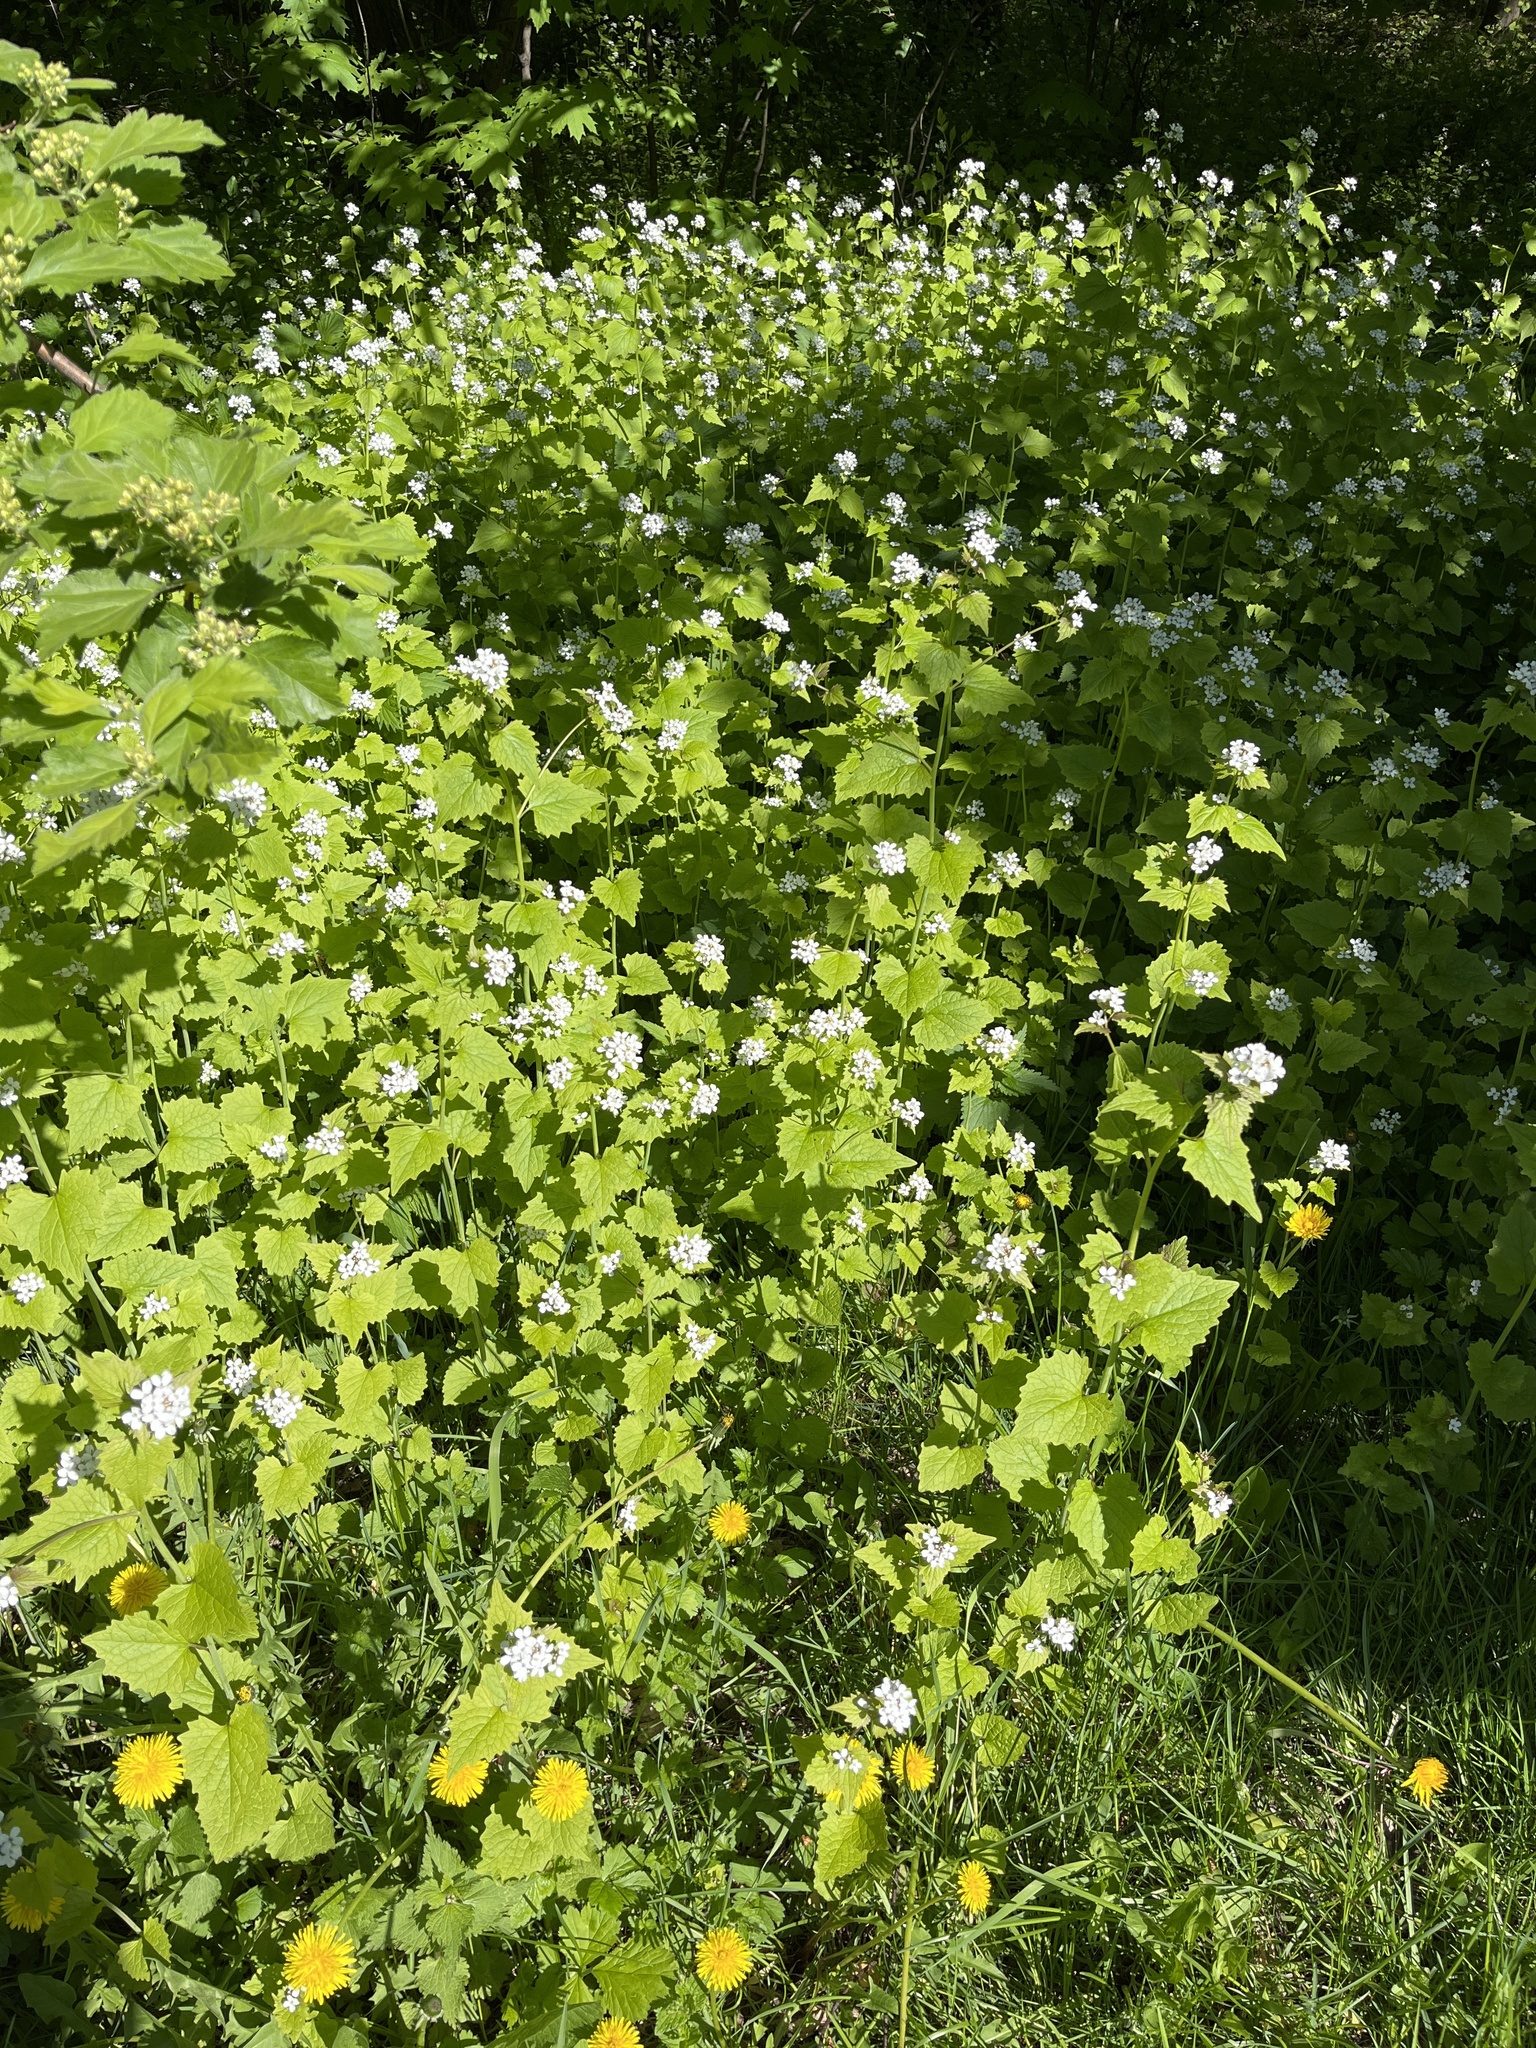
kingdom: Plantae
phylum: Tracheophyta
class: Magnoliopsida
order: Brassicales
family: Brassicaceae
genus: Alliaria
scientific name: Alliaria petiolata
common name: Garlic mustard
